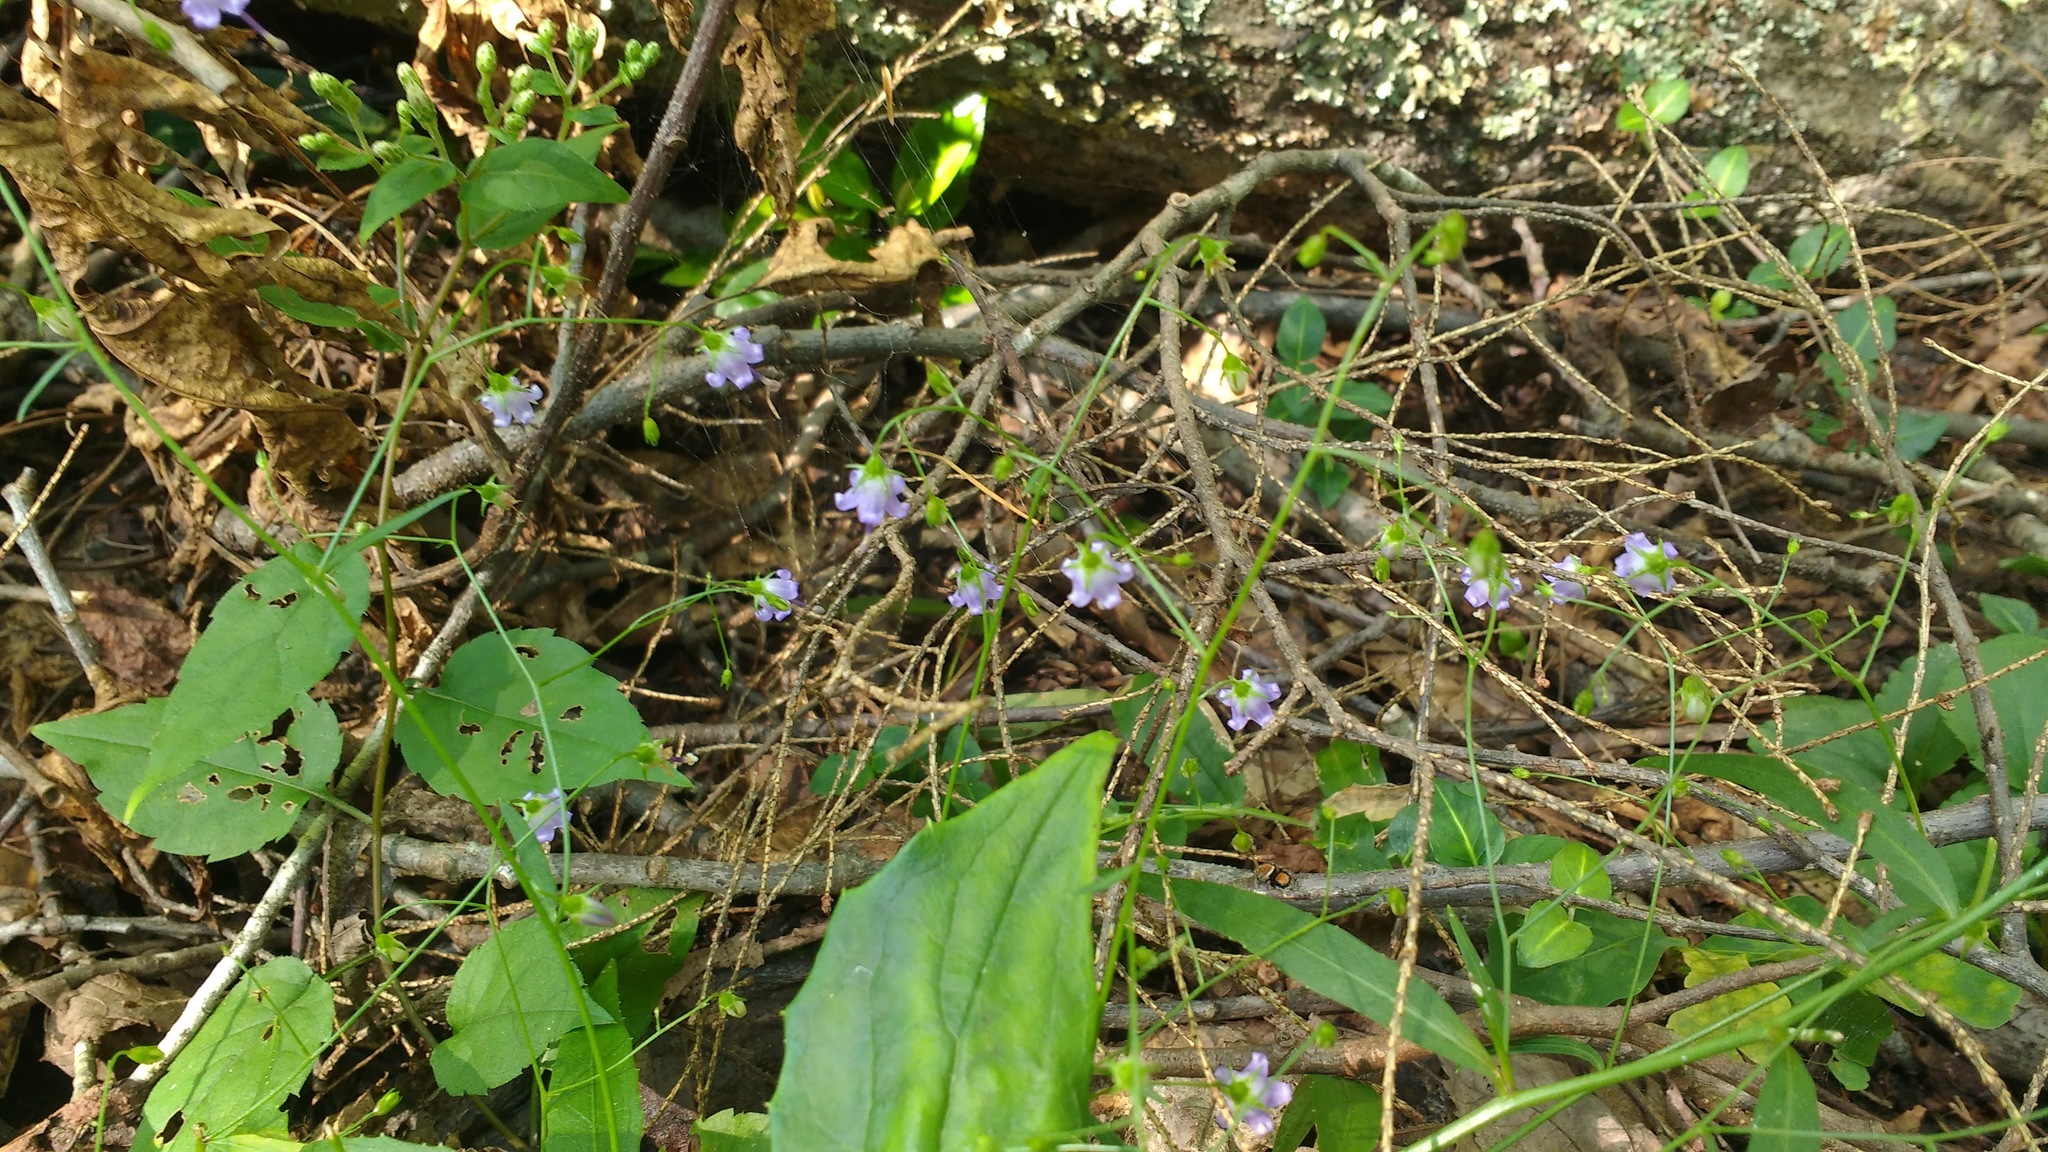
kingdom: Plantae
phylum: Tracheophyta
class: Magnoliopsida
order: Asterales
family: Campanulaceae
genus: Campanula
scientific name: Campanula divaricata
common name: Appalachian bellflower
